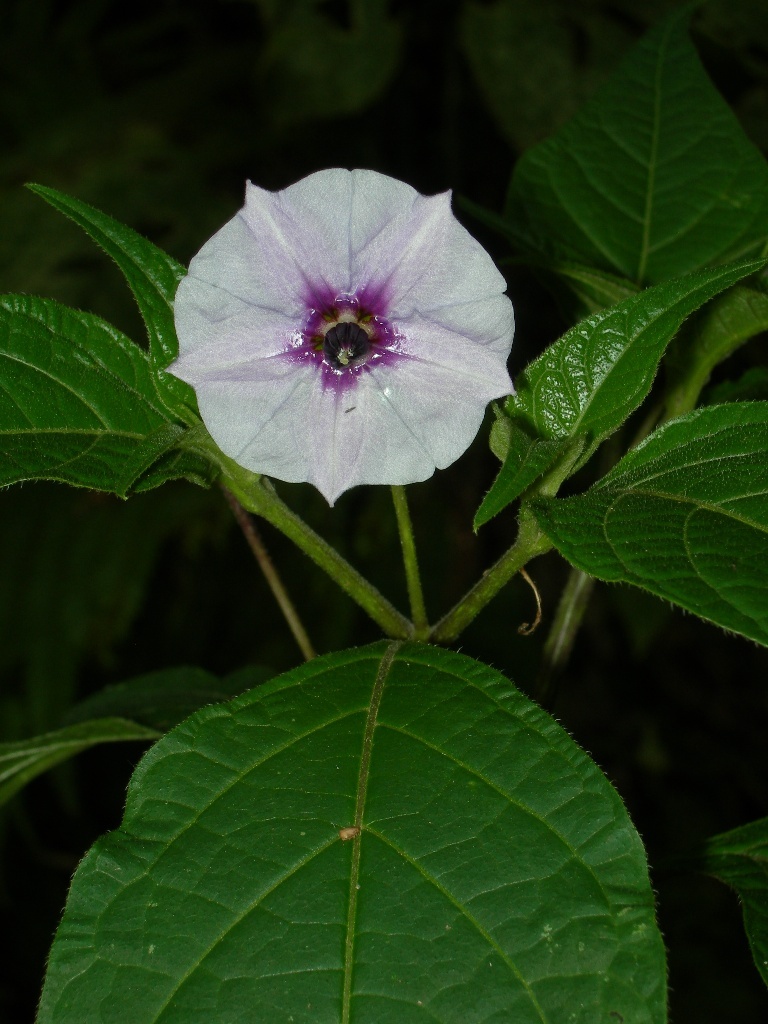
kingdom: Plantae
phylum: Tracheophyta
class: Magnoliopsida
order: Solanales
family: Solanaceae
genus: Lycianthes
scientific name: Lycianthes connata
